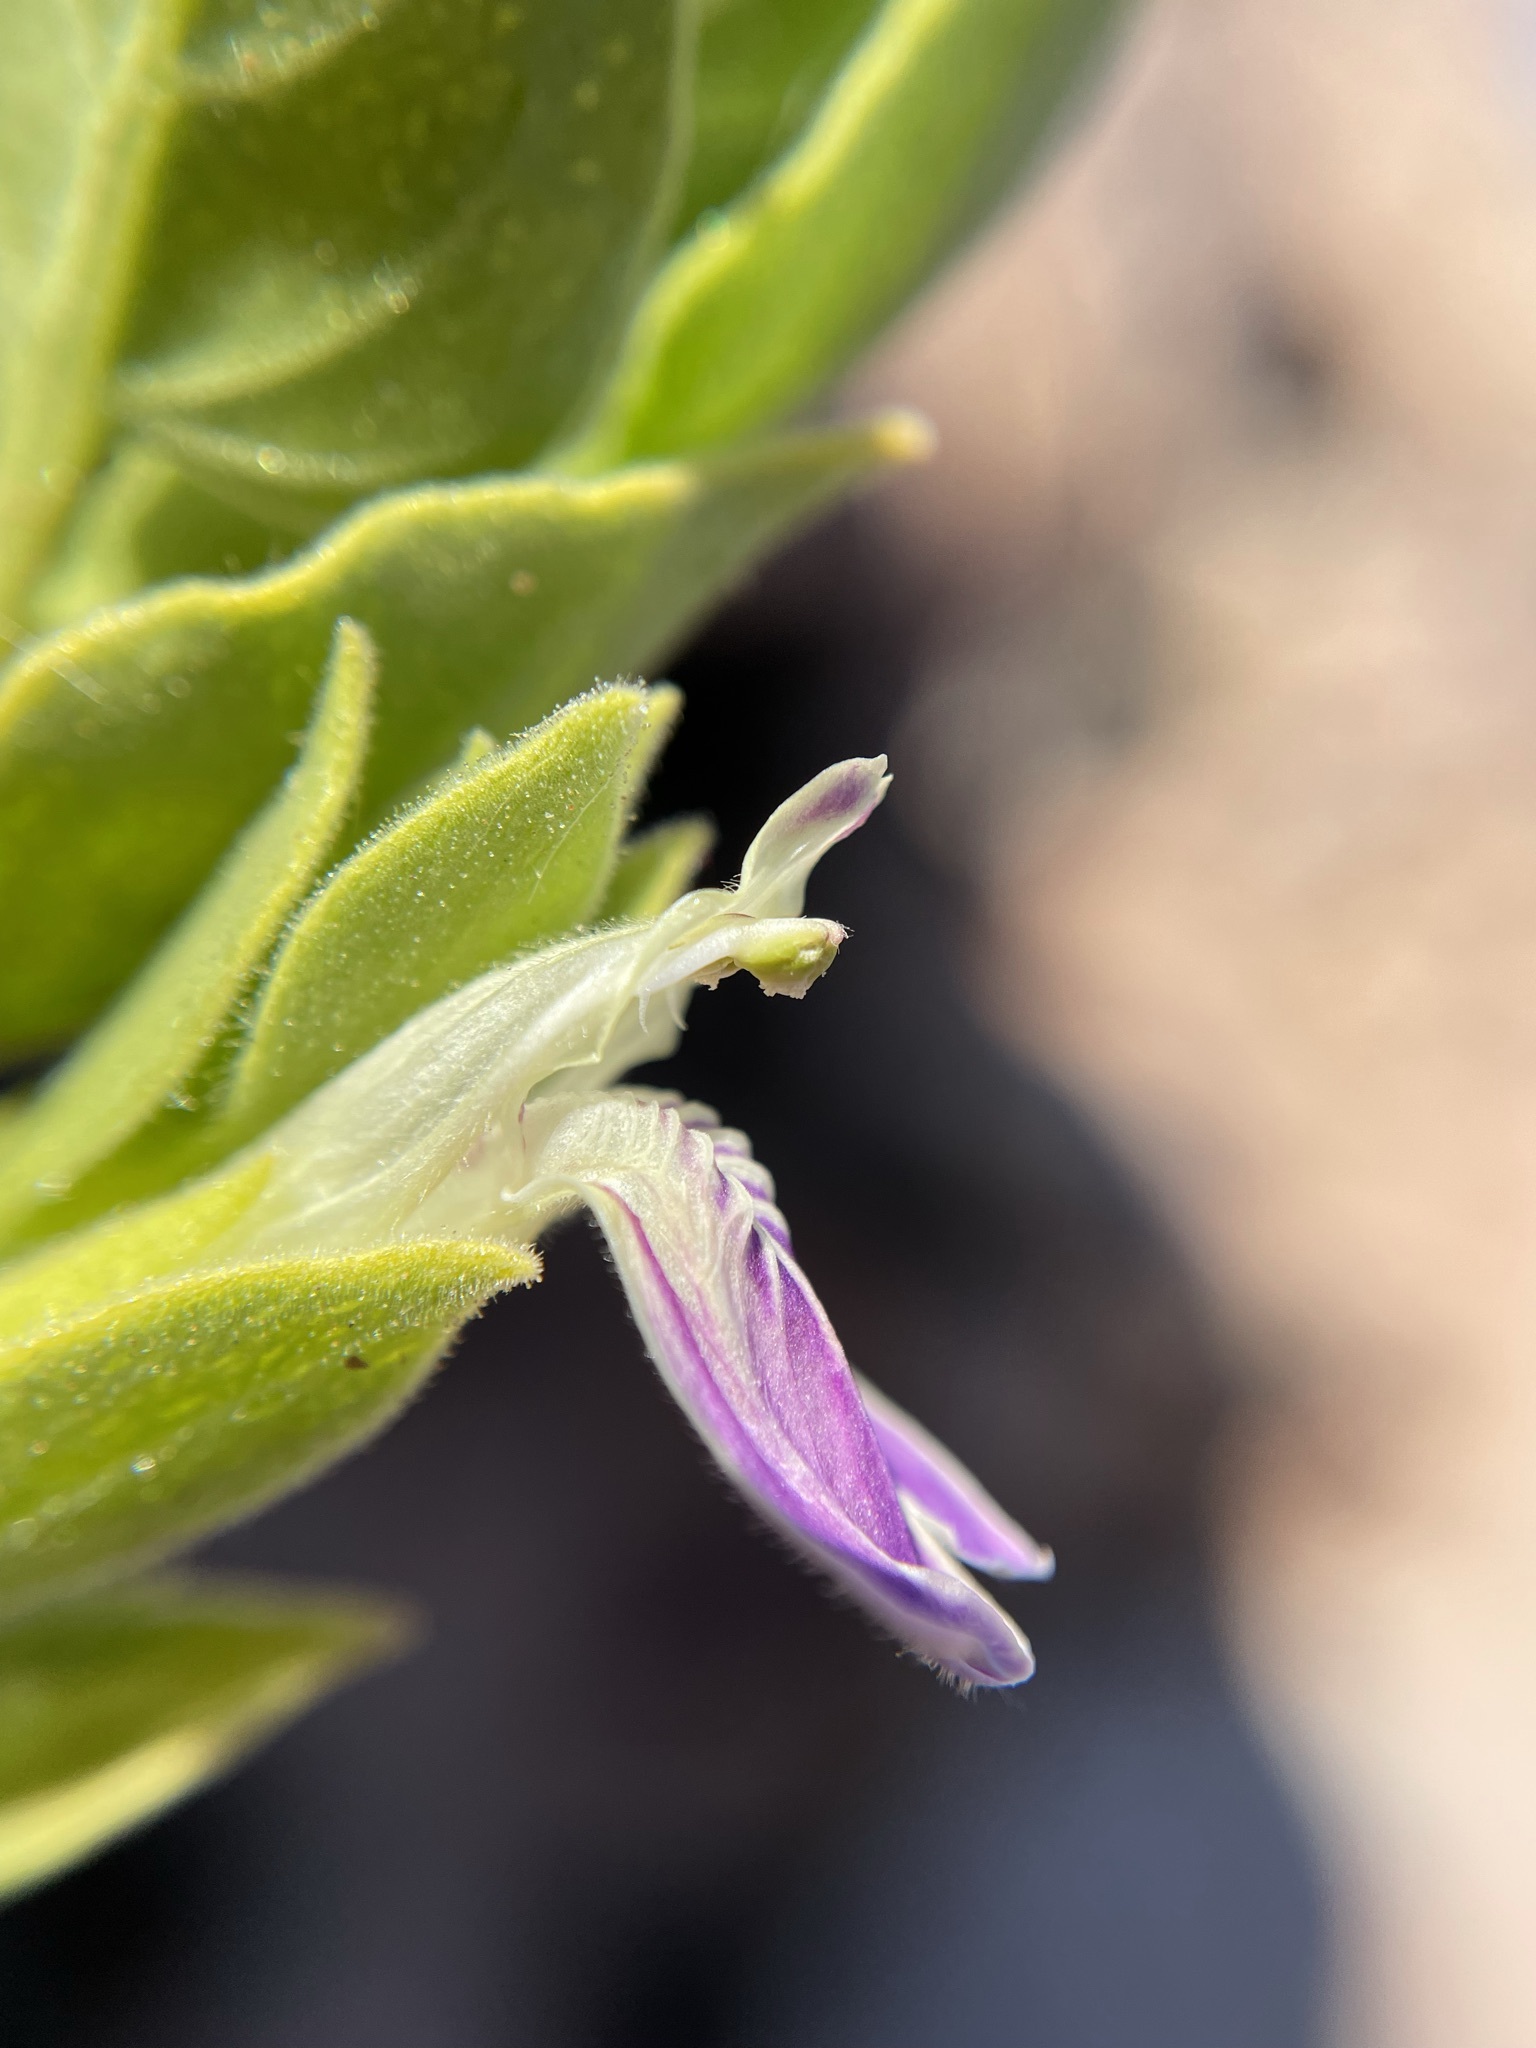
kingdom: Plantae
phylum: Tracheophyta
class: Magnoliopsida
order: Lamiales
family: Acanthaceae
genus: Pogonospermum
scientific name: Pogonospermum
